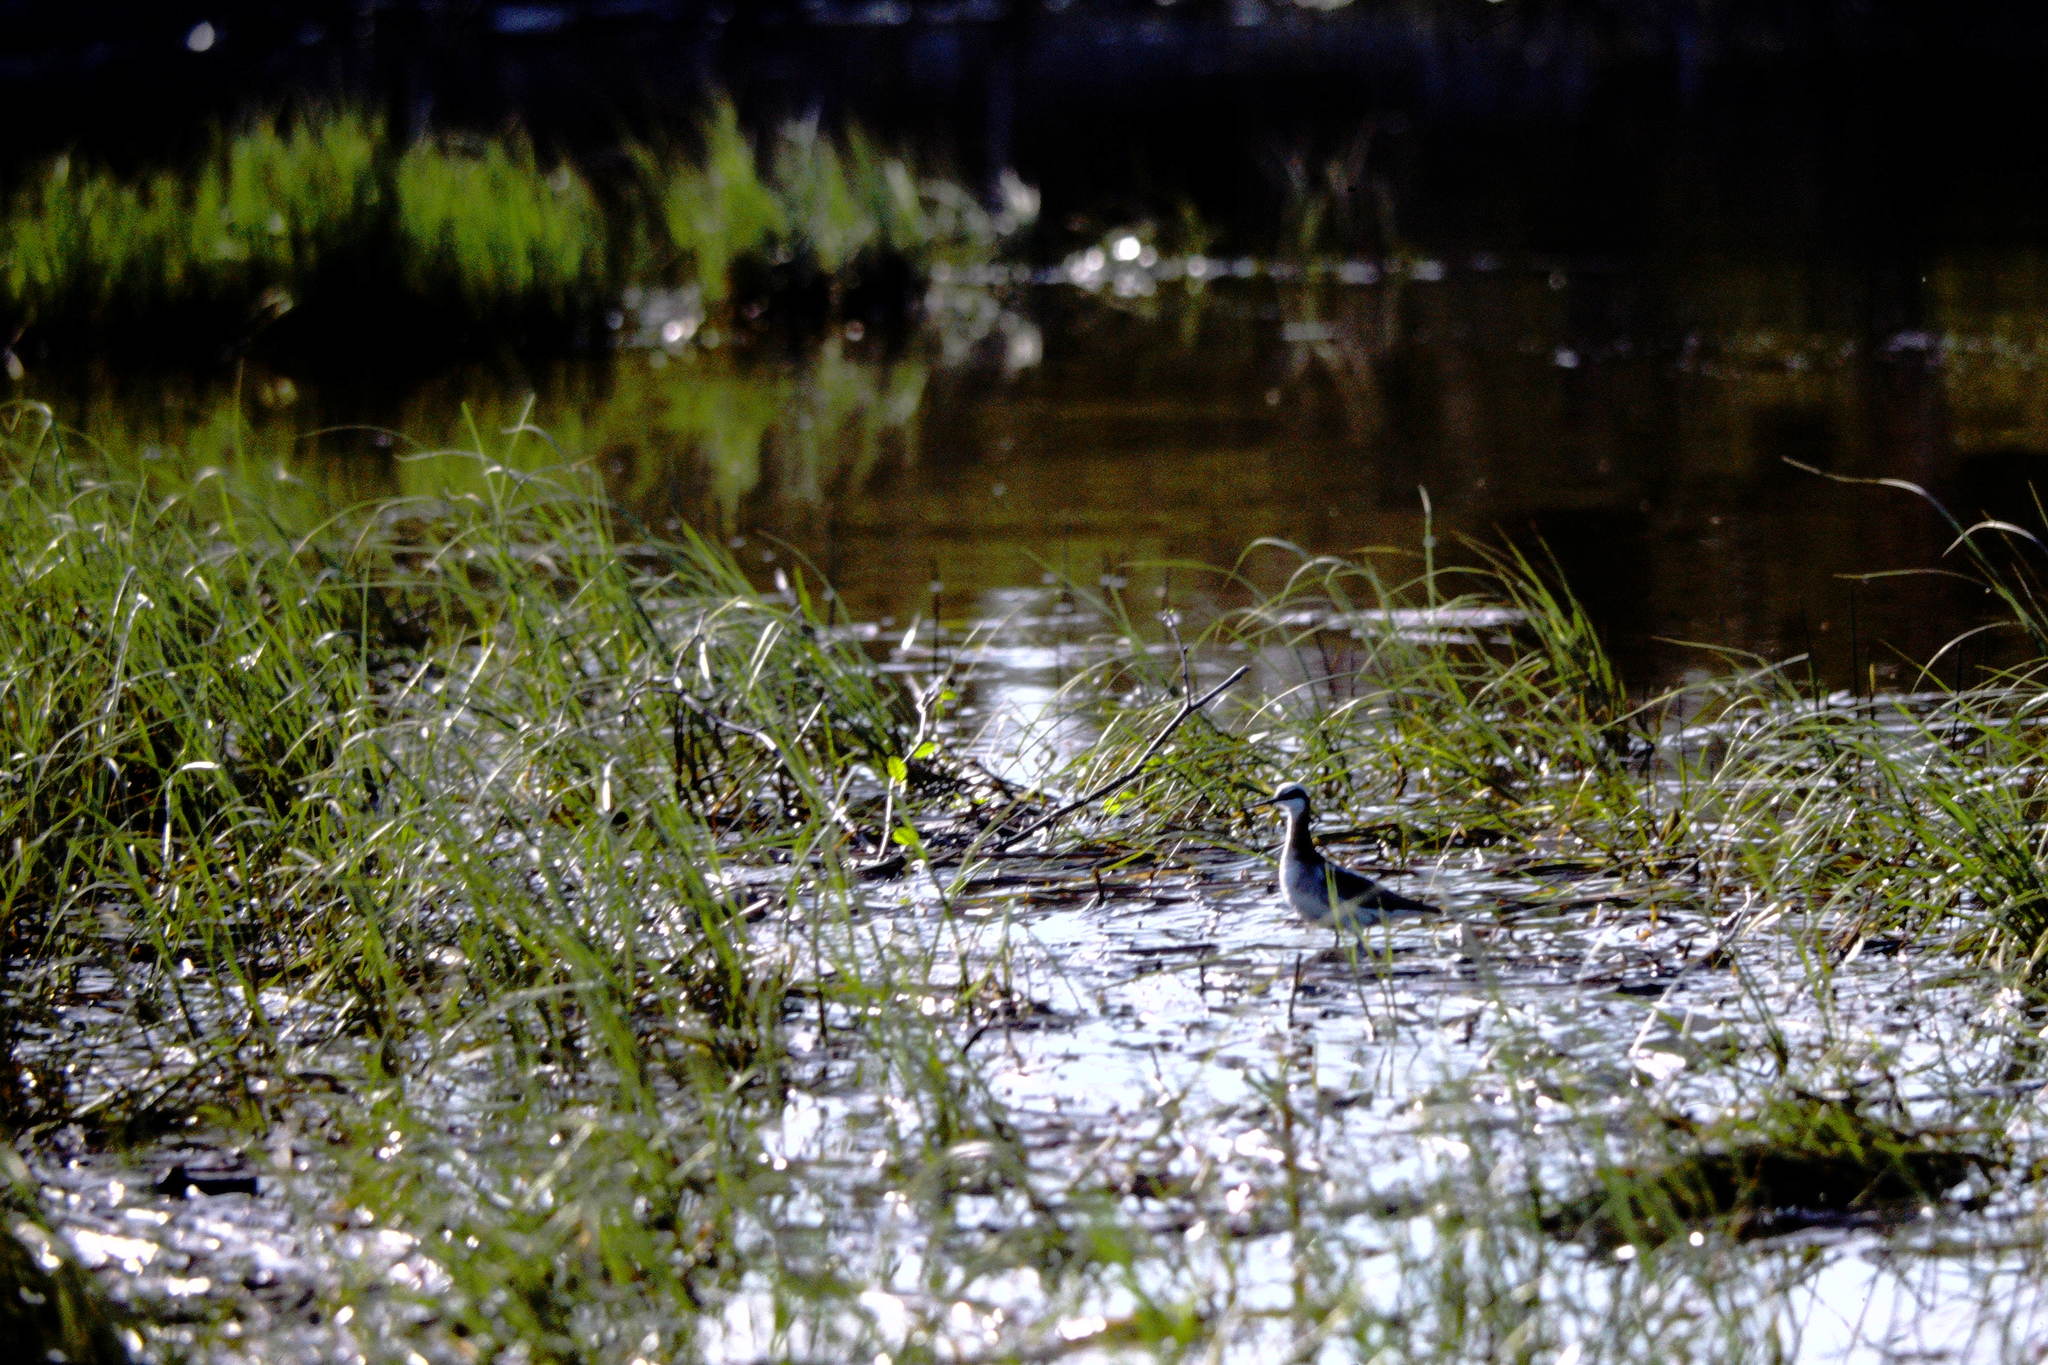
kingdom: Animalia
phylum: Chordata
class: Aves
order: Charadriiformes
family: Scolopacidae
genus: Phalaropus
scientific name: Phalaropus tricolor
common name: Wilson's phalarope
